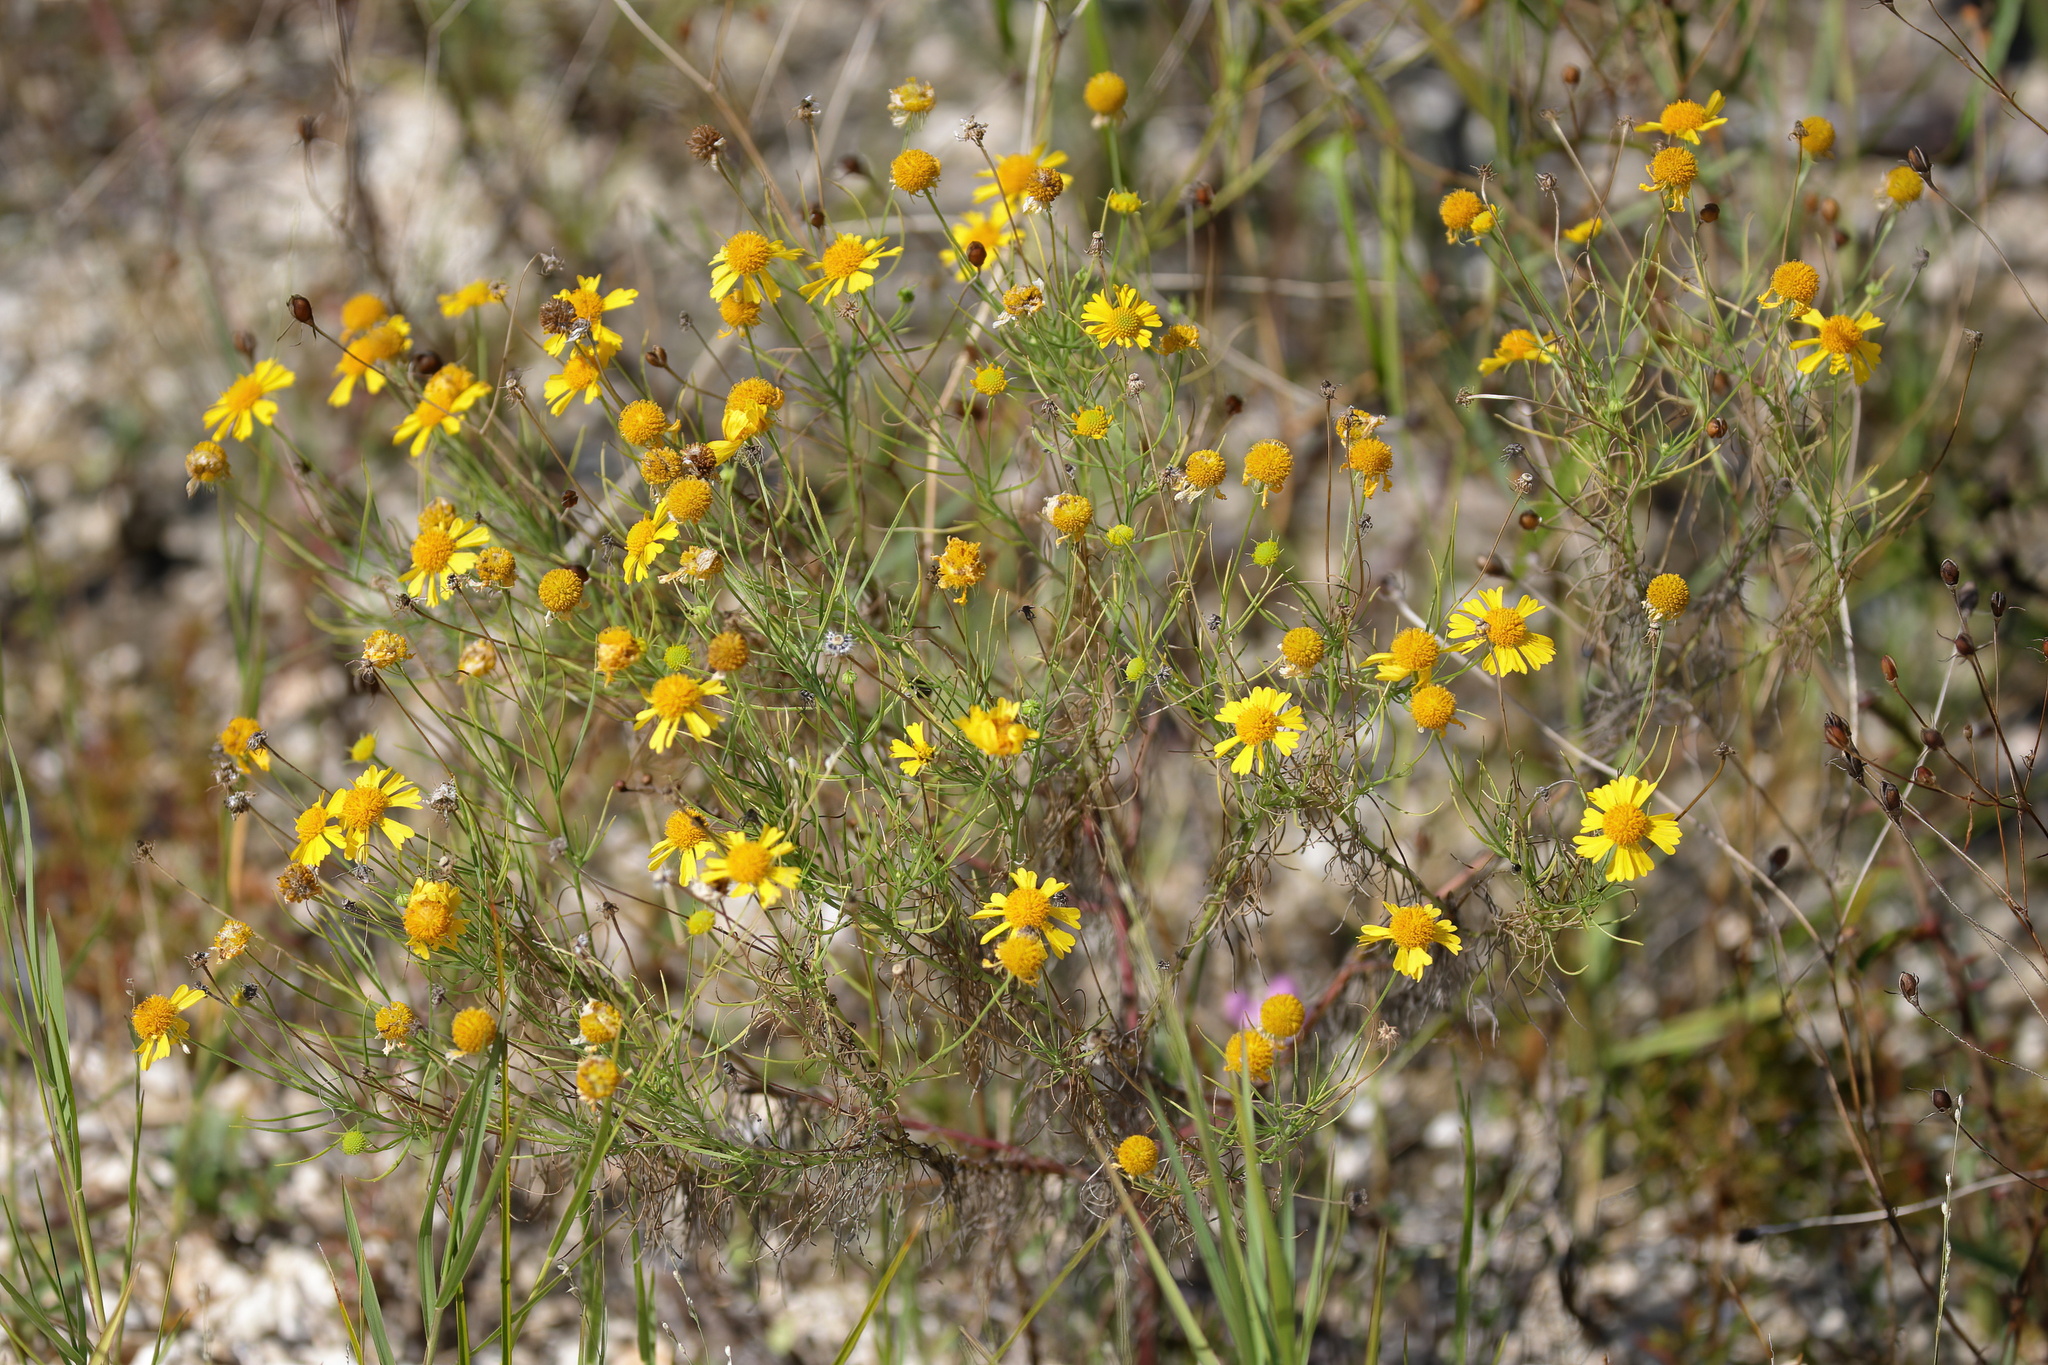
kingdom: Plantae
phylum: Tracheophyta
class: Magnoliopsida
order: Asterales
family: Asteraceae
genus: Helenium
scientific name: Helenium amarum
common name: Bitter sneezeweed
